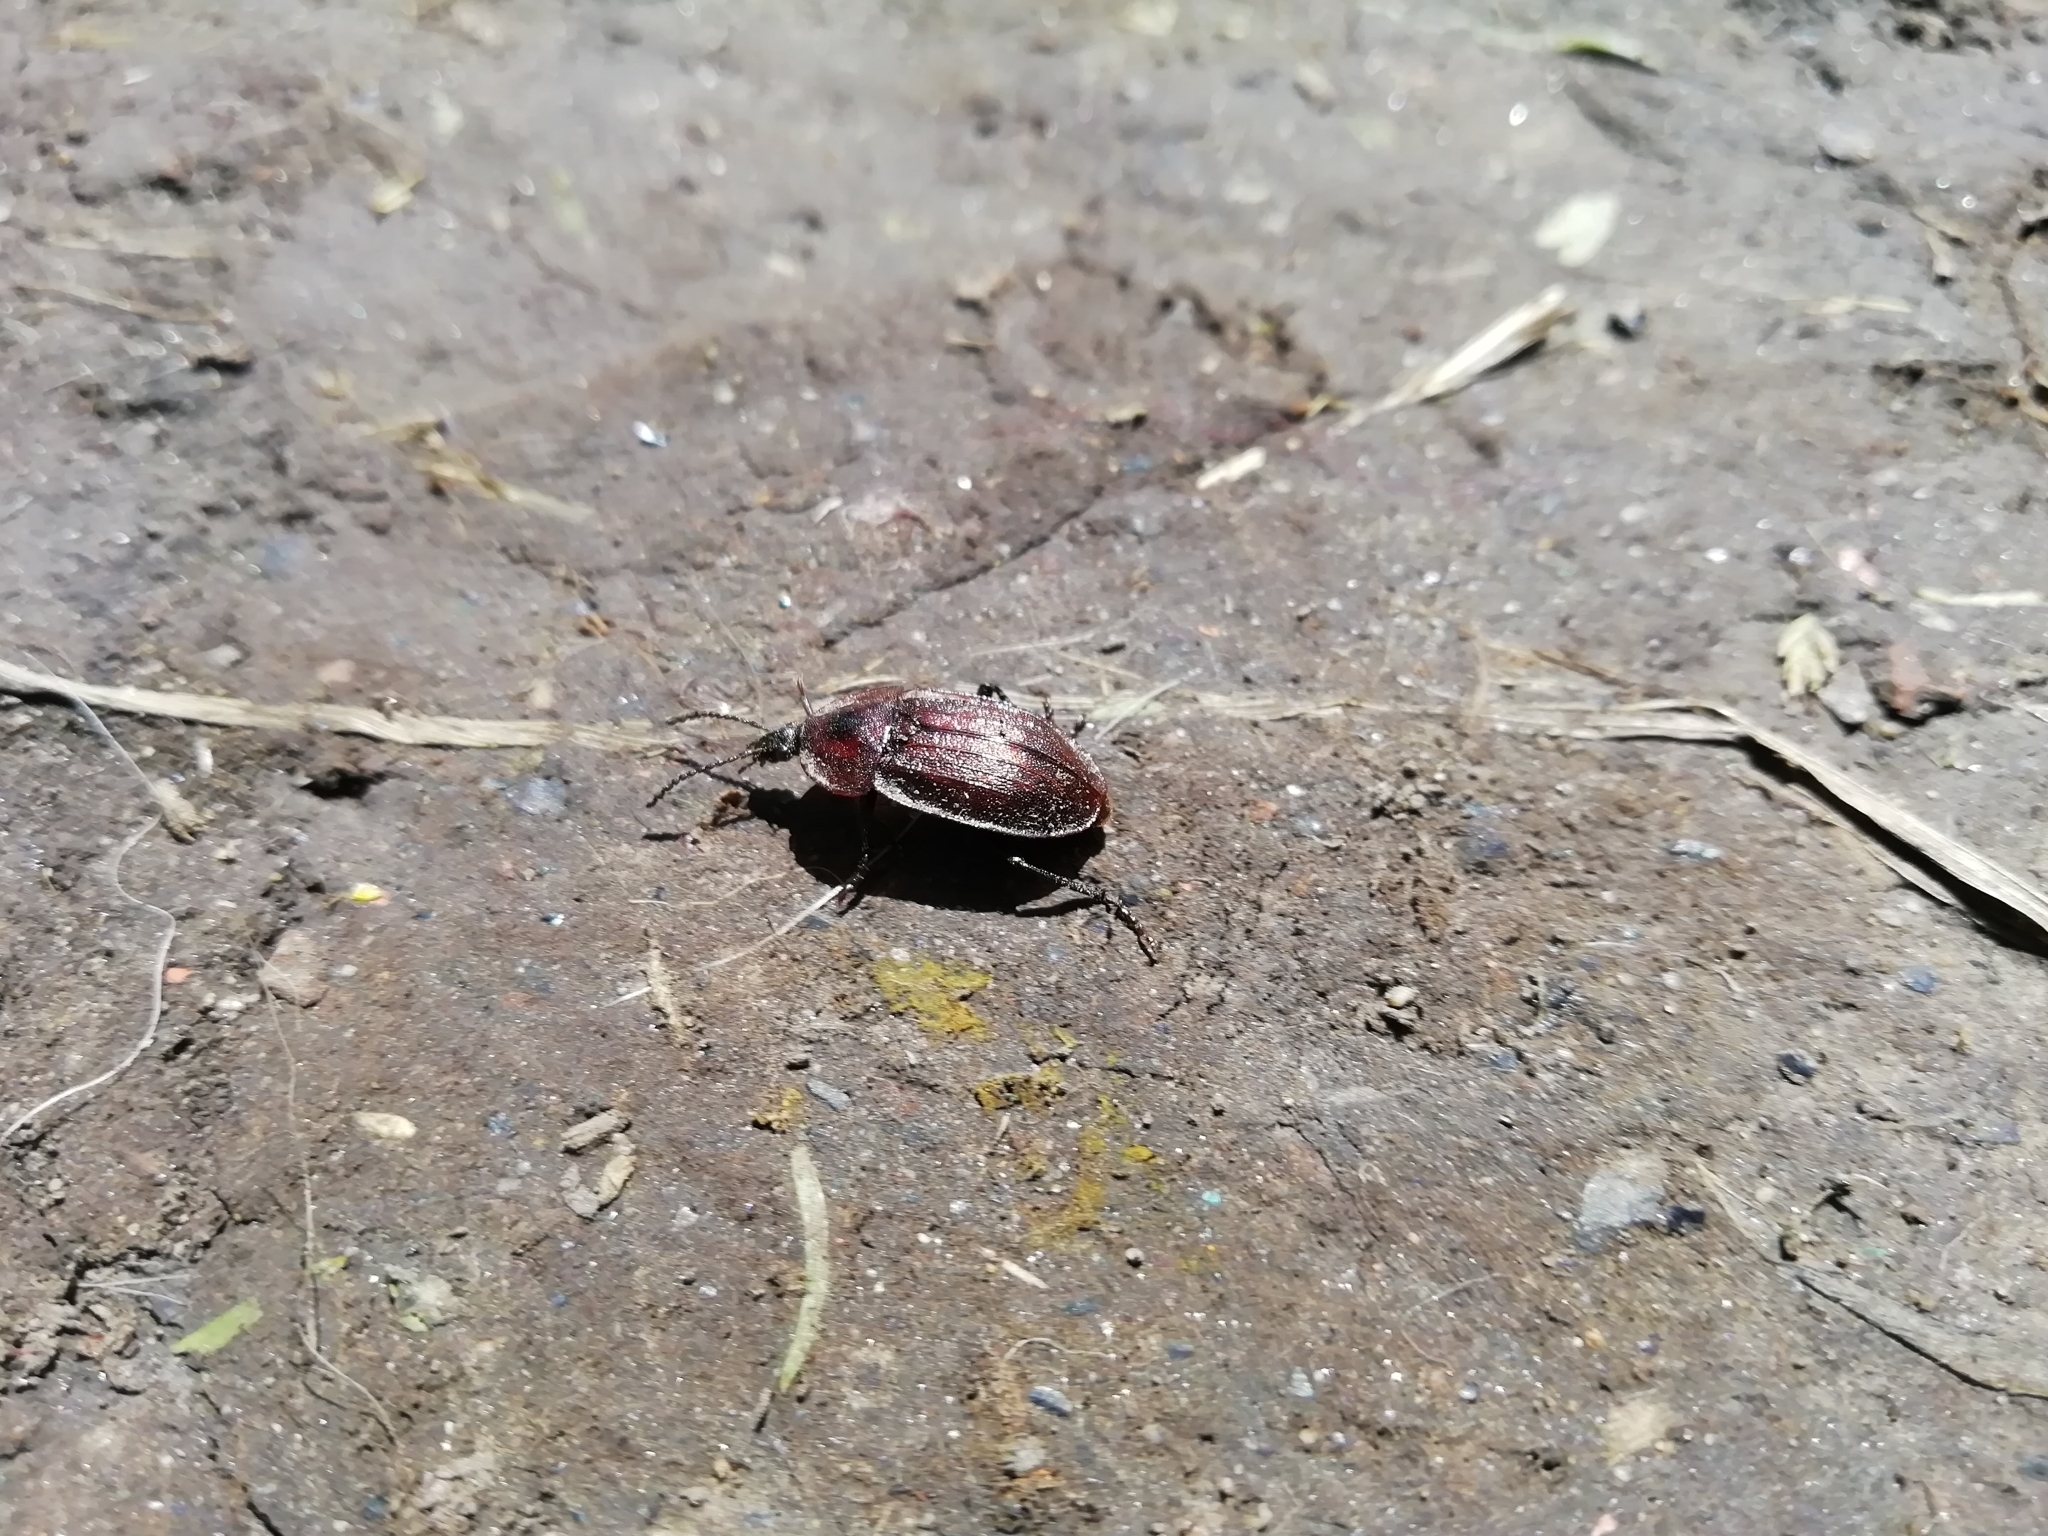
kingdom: Animalia
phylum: Arthropoda
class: Insecta
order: Coleoptera
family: Staphylinidae
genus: Silpha
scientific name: Silpha atrata
